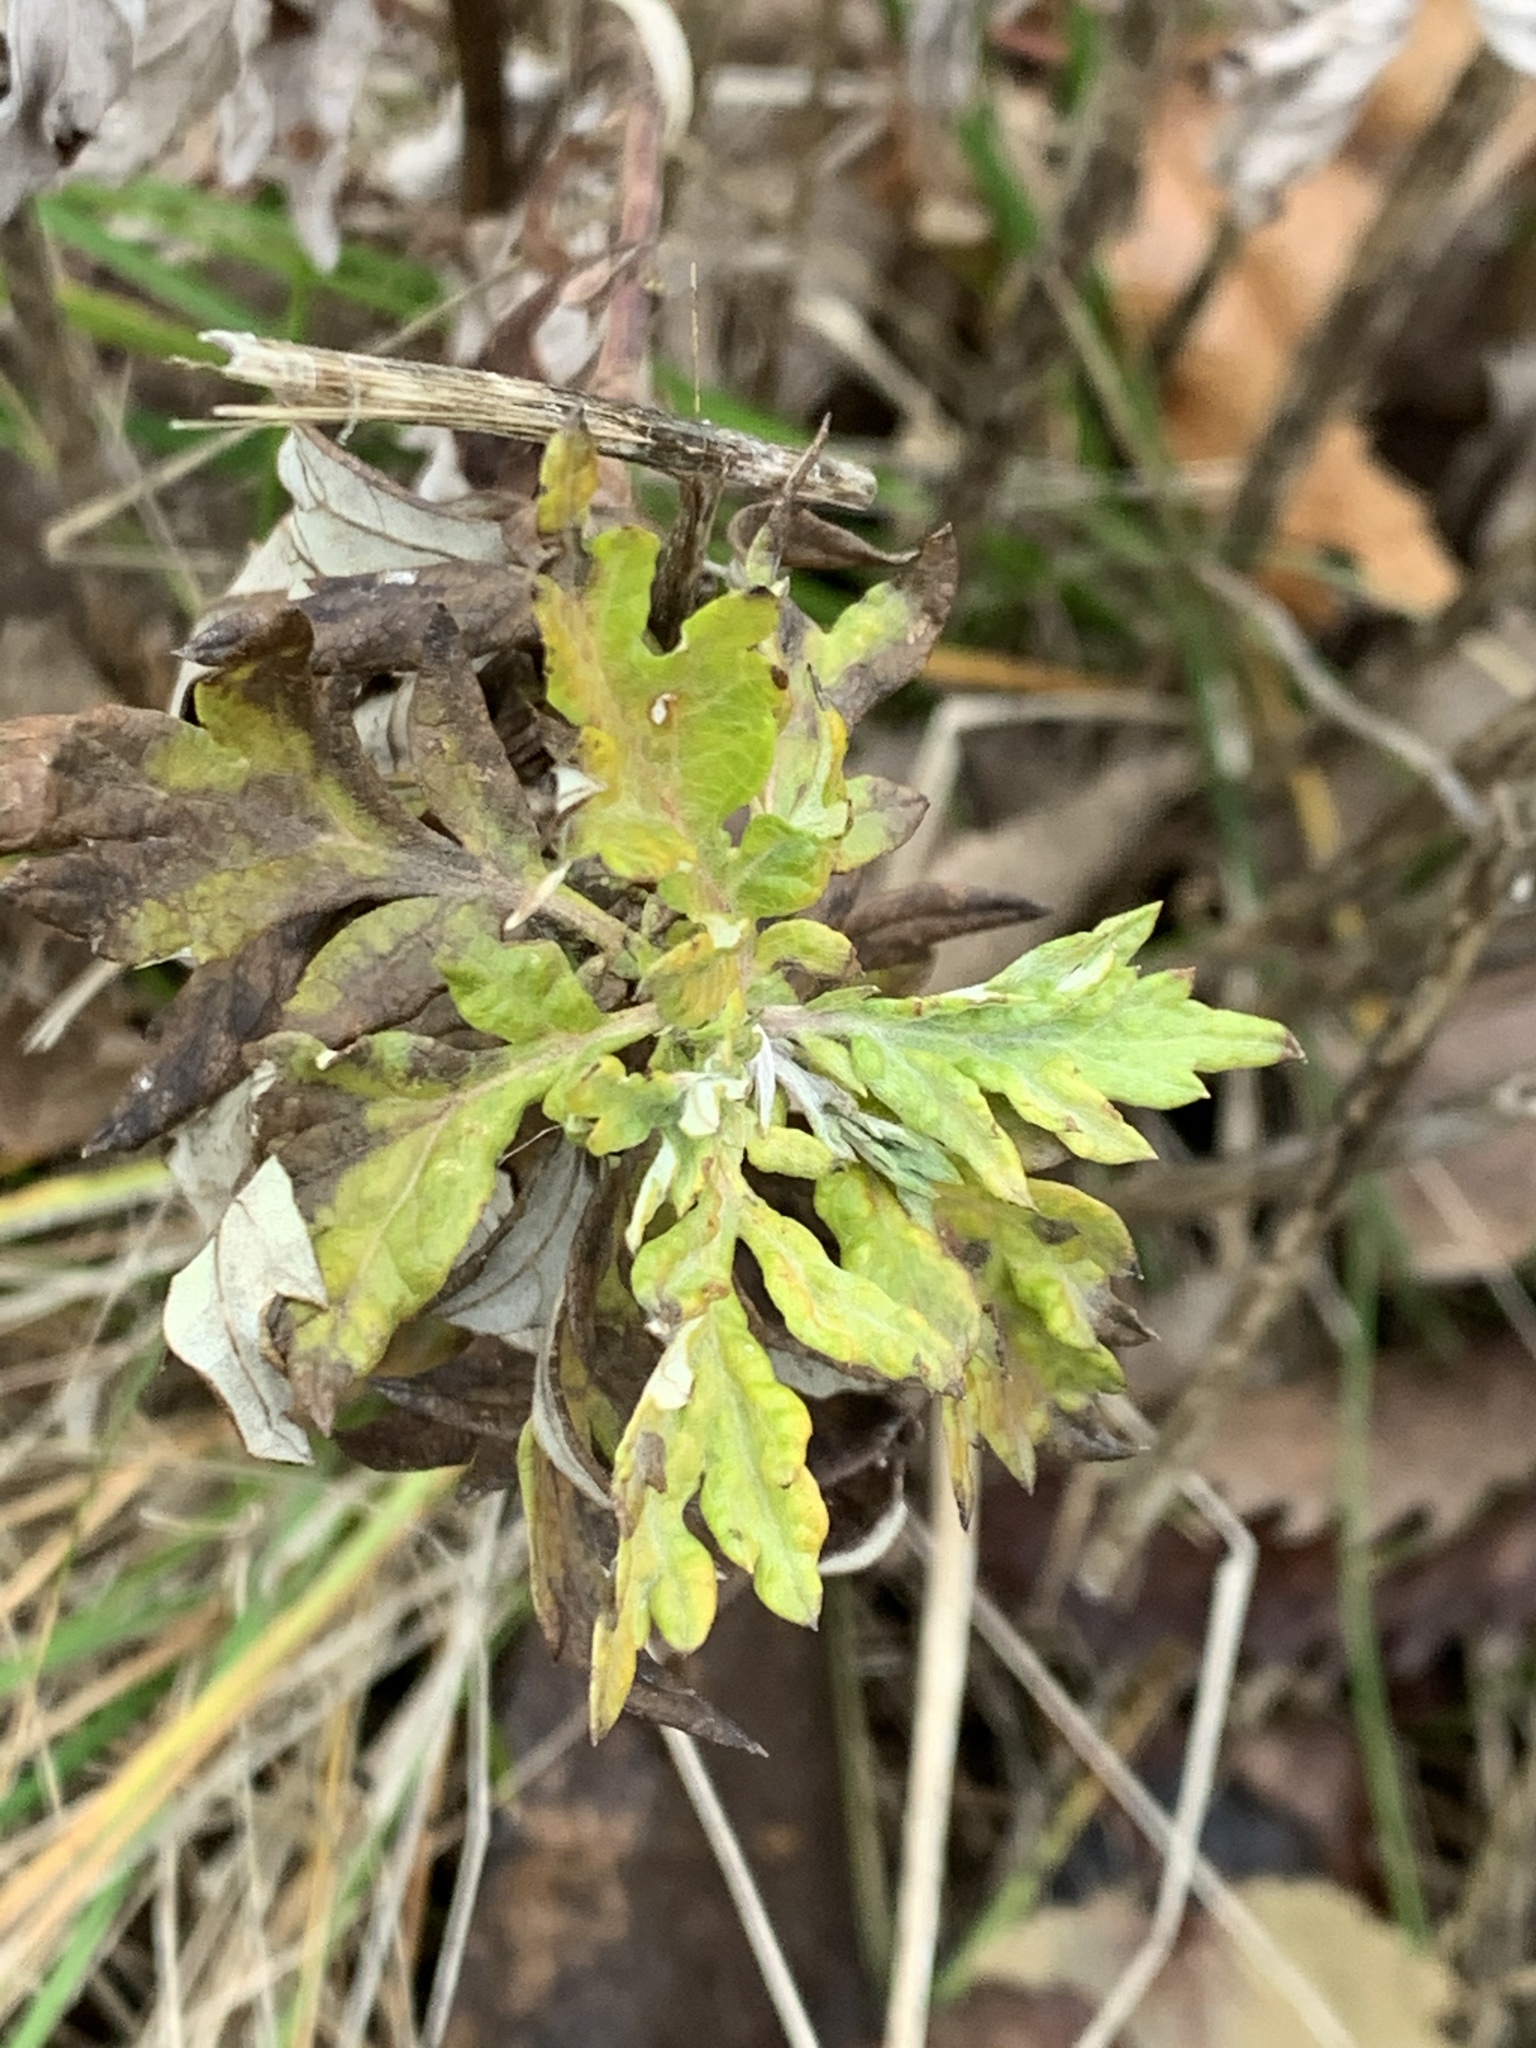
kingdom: Plantae
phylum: Tracheophyta
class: Magnoliopsida
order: Asterales
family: Asteraceae
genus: Artemisia
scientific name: Artemisia vulgaris
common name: Mugwort
